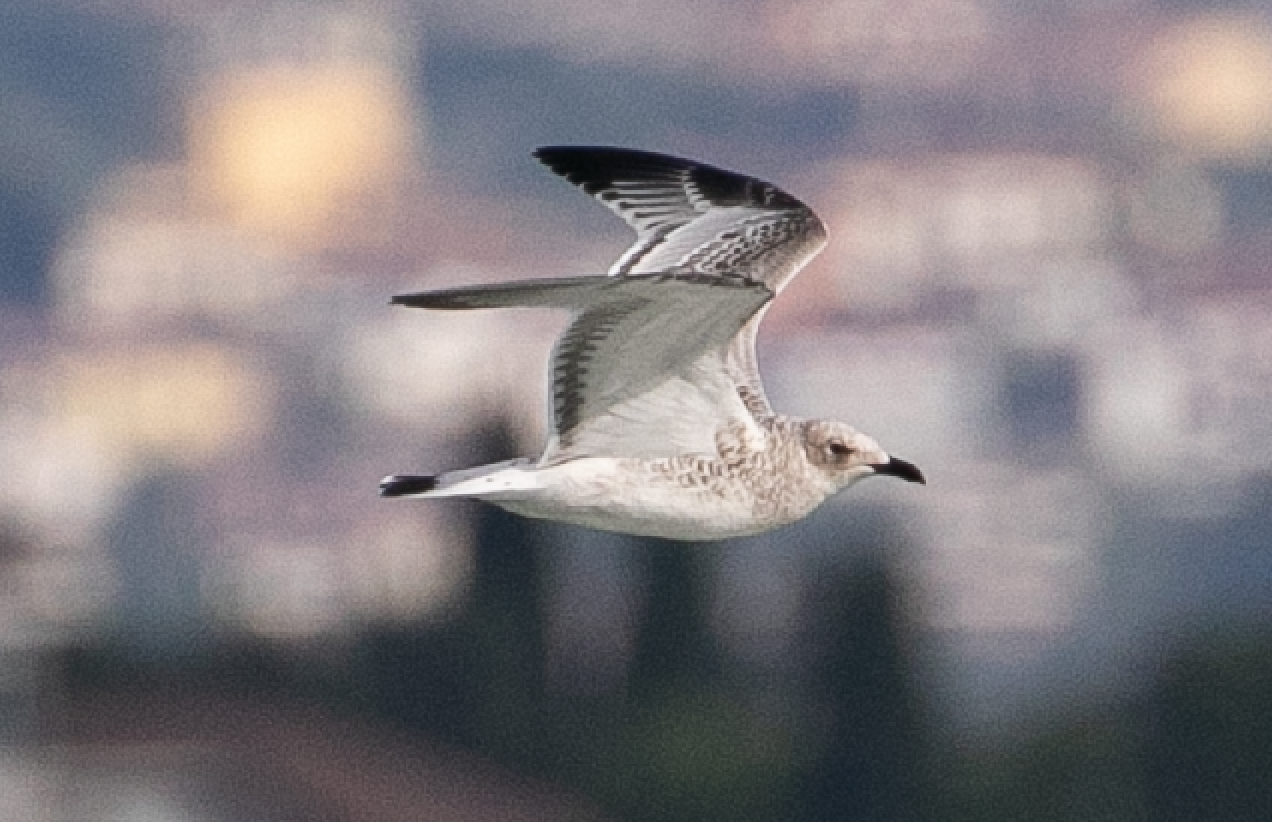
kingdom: Animalia
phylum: Chordata
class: Aves
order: Charadriiformes
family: Laridae
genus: Ichthyaetus
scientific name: Ichthyaetus melanocephalus
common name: Mediterranean gull
